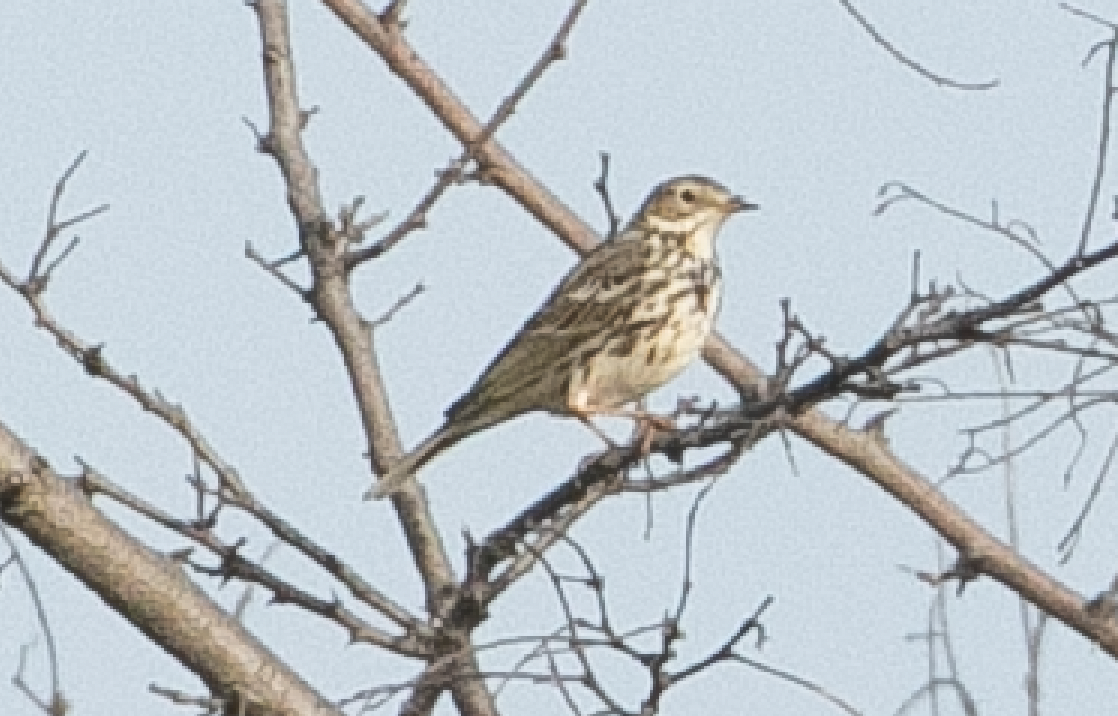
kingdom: Animalia
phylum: Chordata
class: Aves
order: Passeriformes
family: Motacillidae
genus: Anthus
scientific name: Anthus pratensis
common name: Meadow pipit
